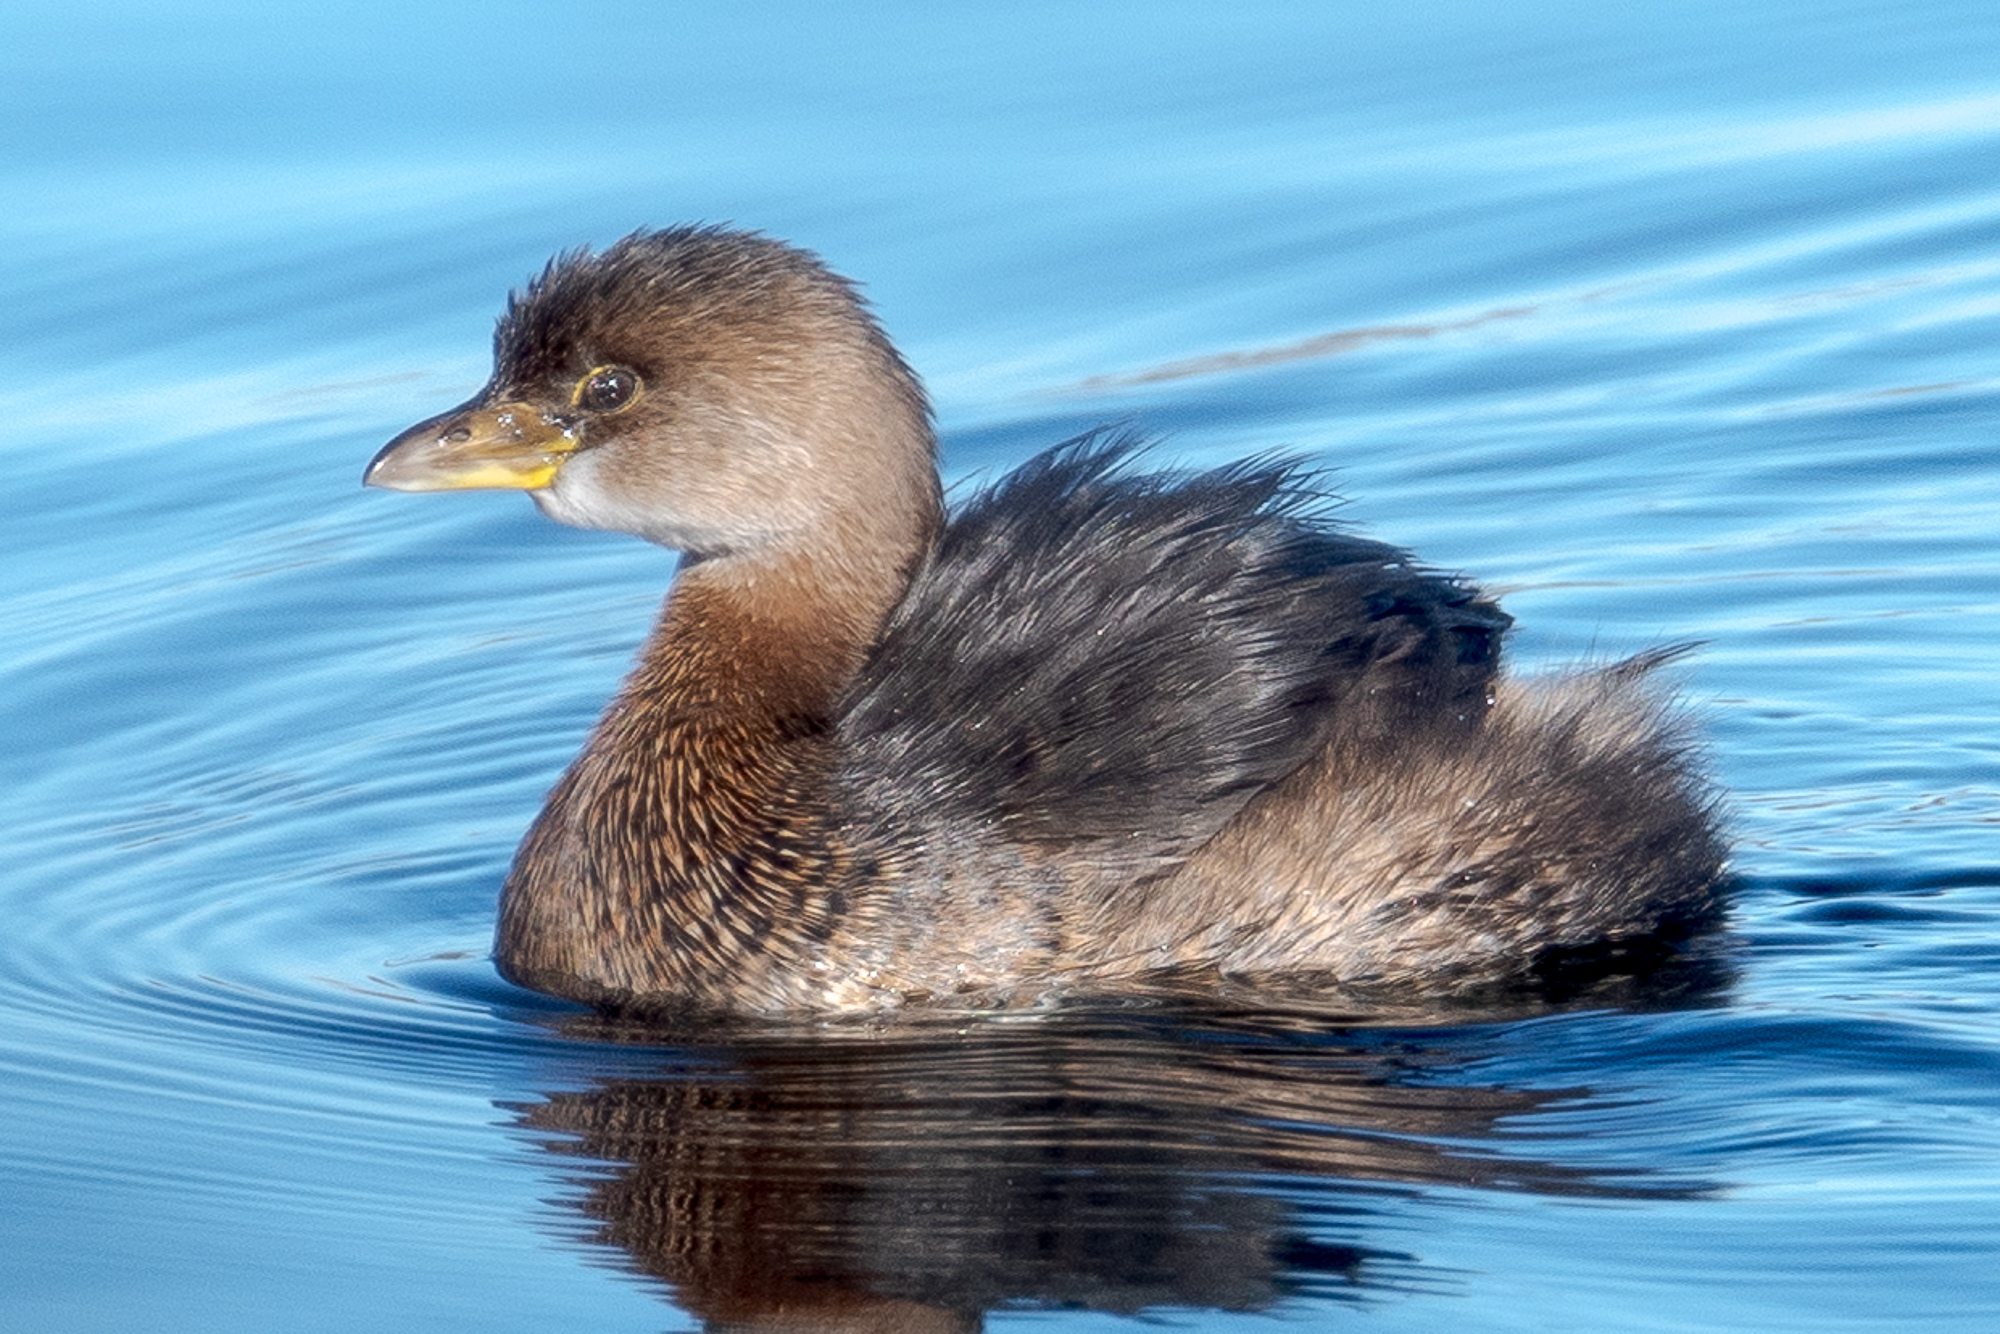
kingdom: Animalia
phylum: Chordata
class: Aves
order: Podicipediformes
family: Podicipedidae
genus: Podilymbus
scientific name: Podilymbus podiceps
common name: Pied-billed grebe
